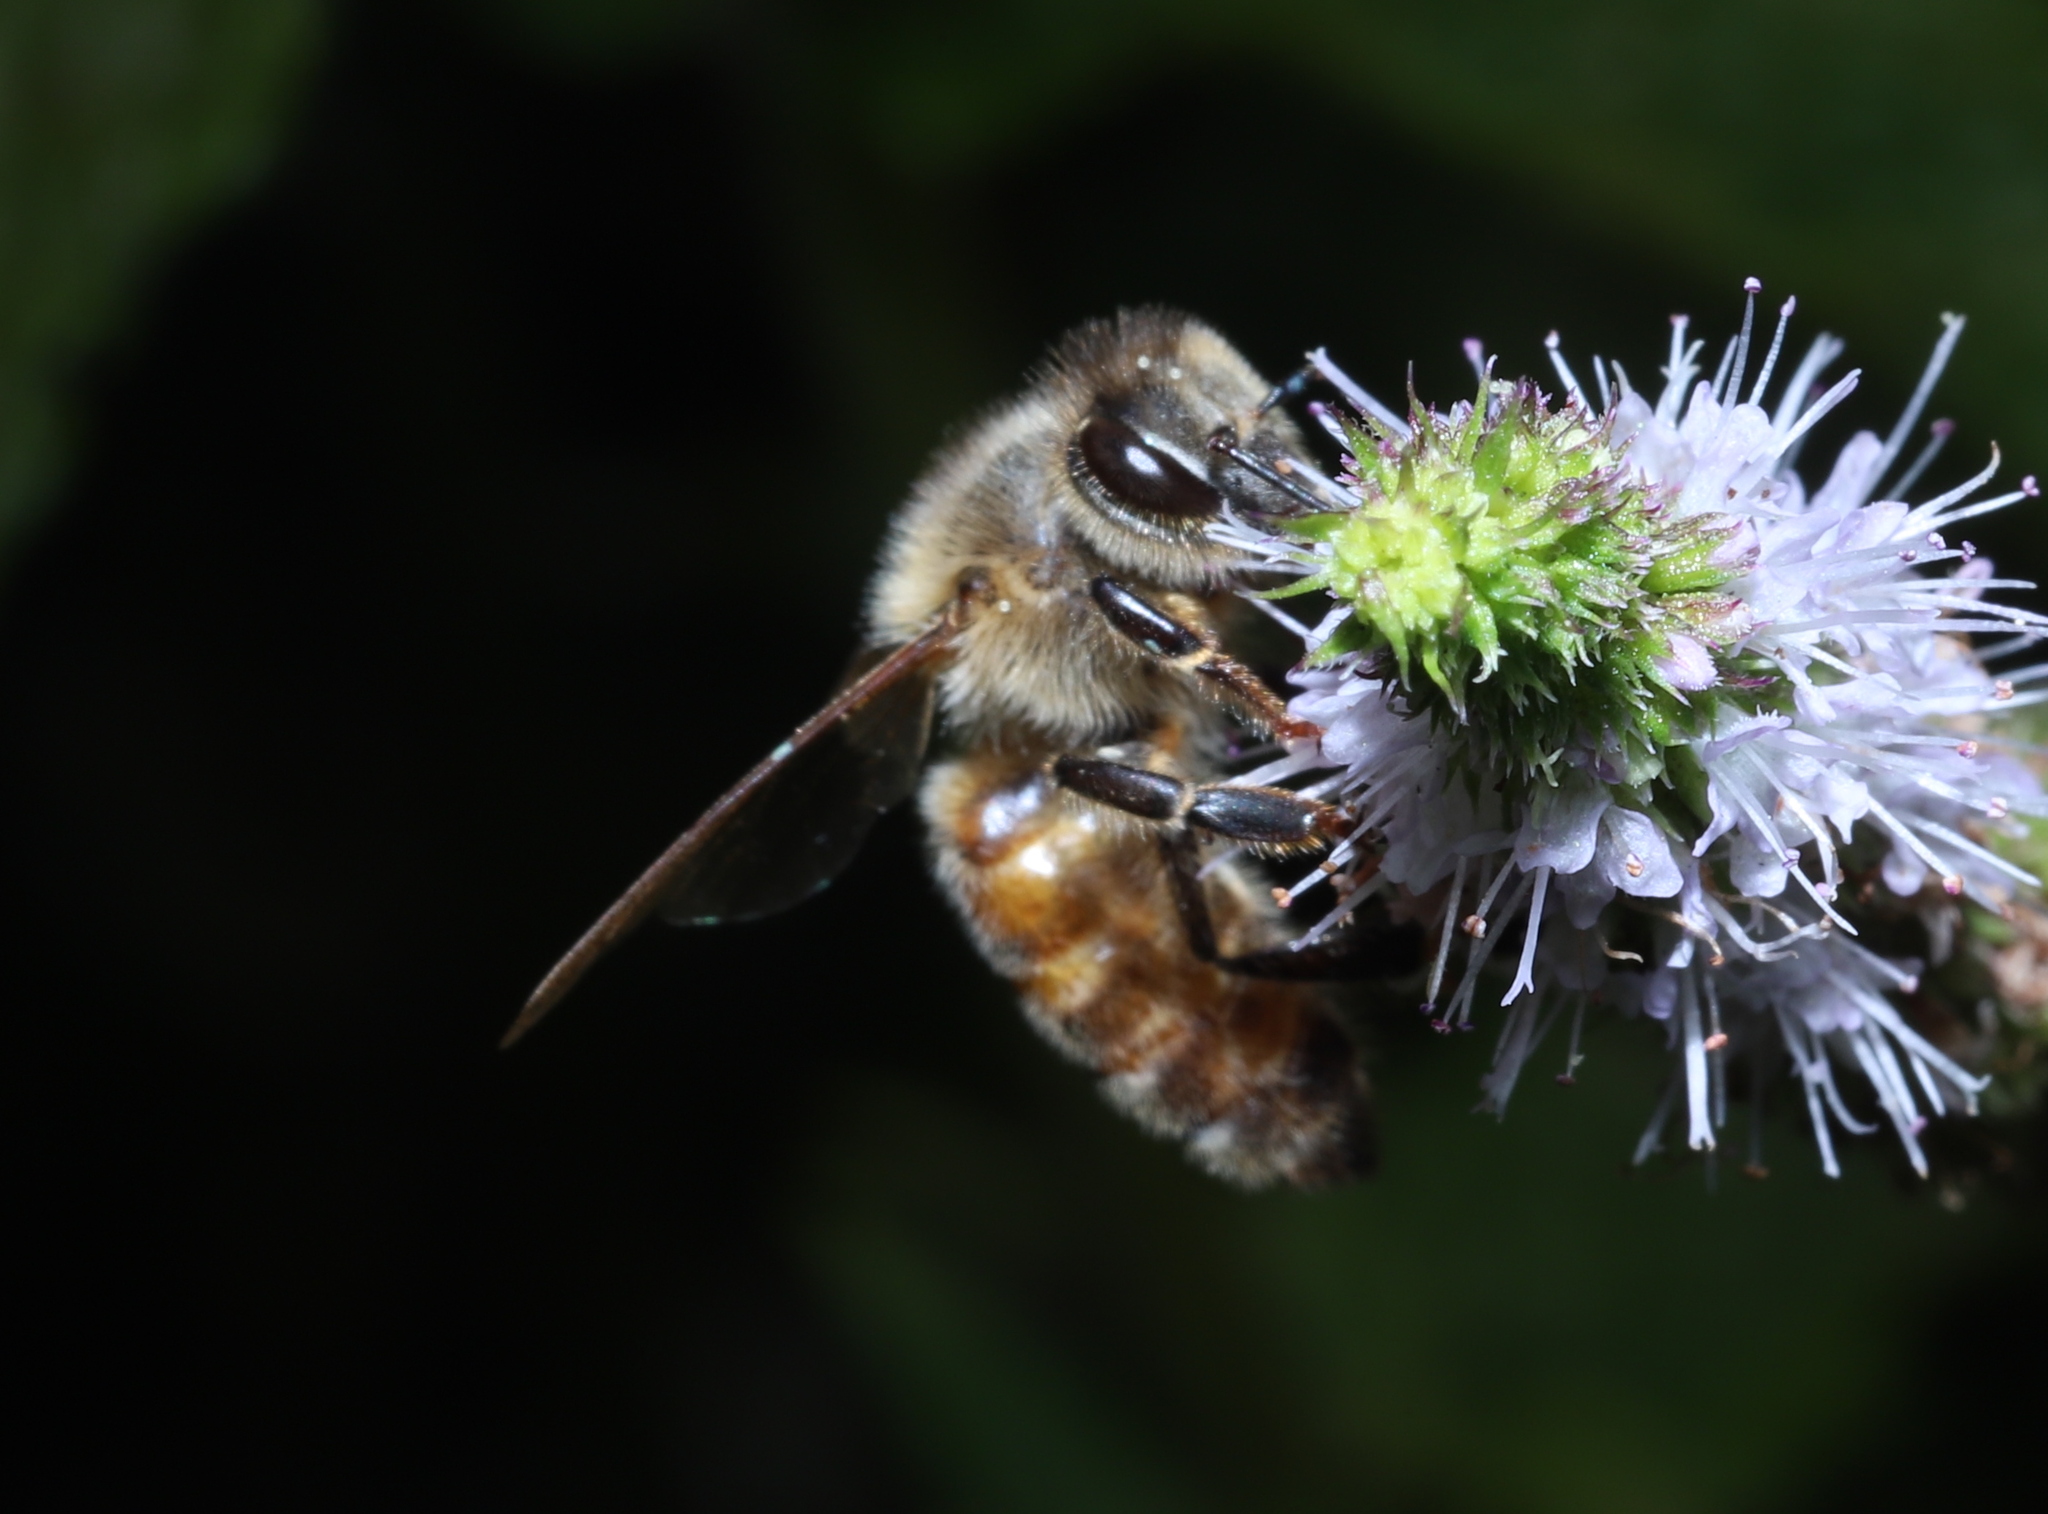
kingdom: Animalia
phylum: Arthropoda
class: Insecta
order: Hymenoptera
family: Apidae
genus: Apis
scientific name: Apis mellifera
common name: Honey bee
